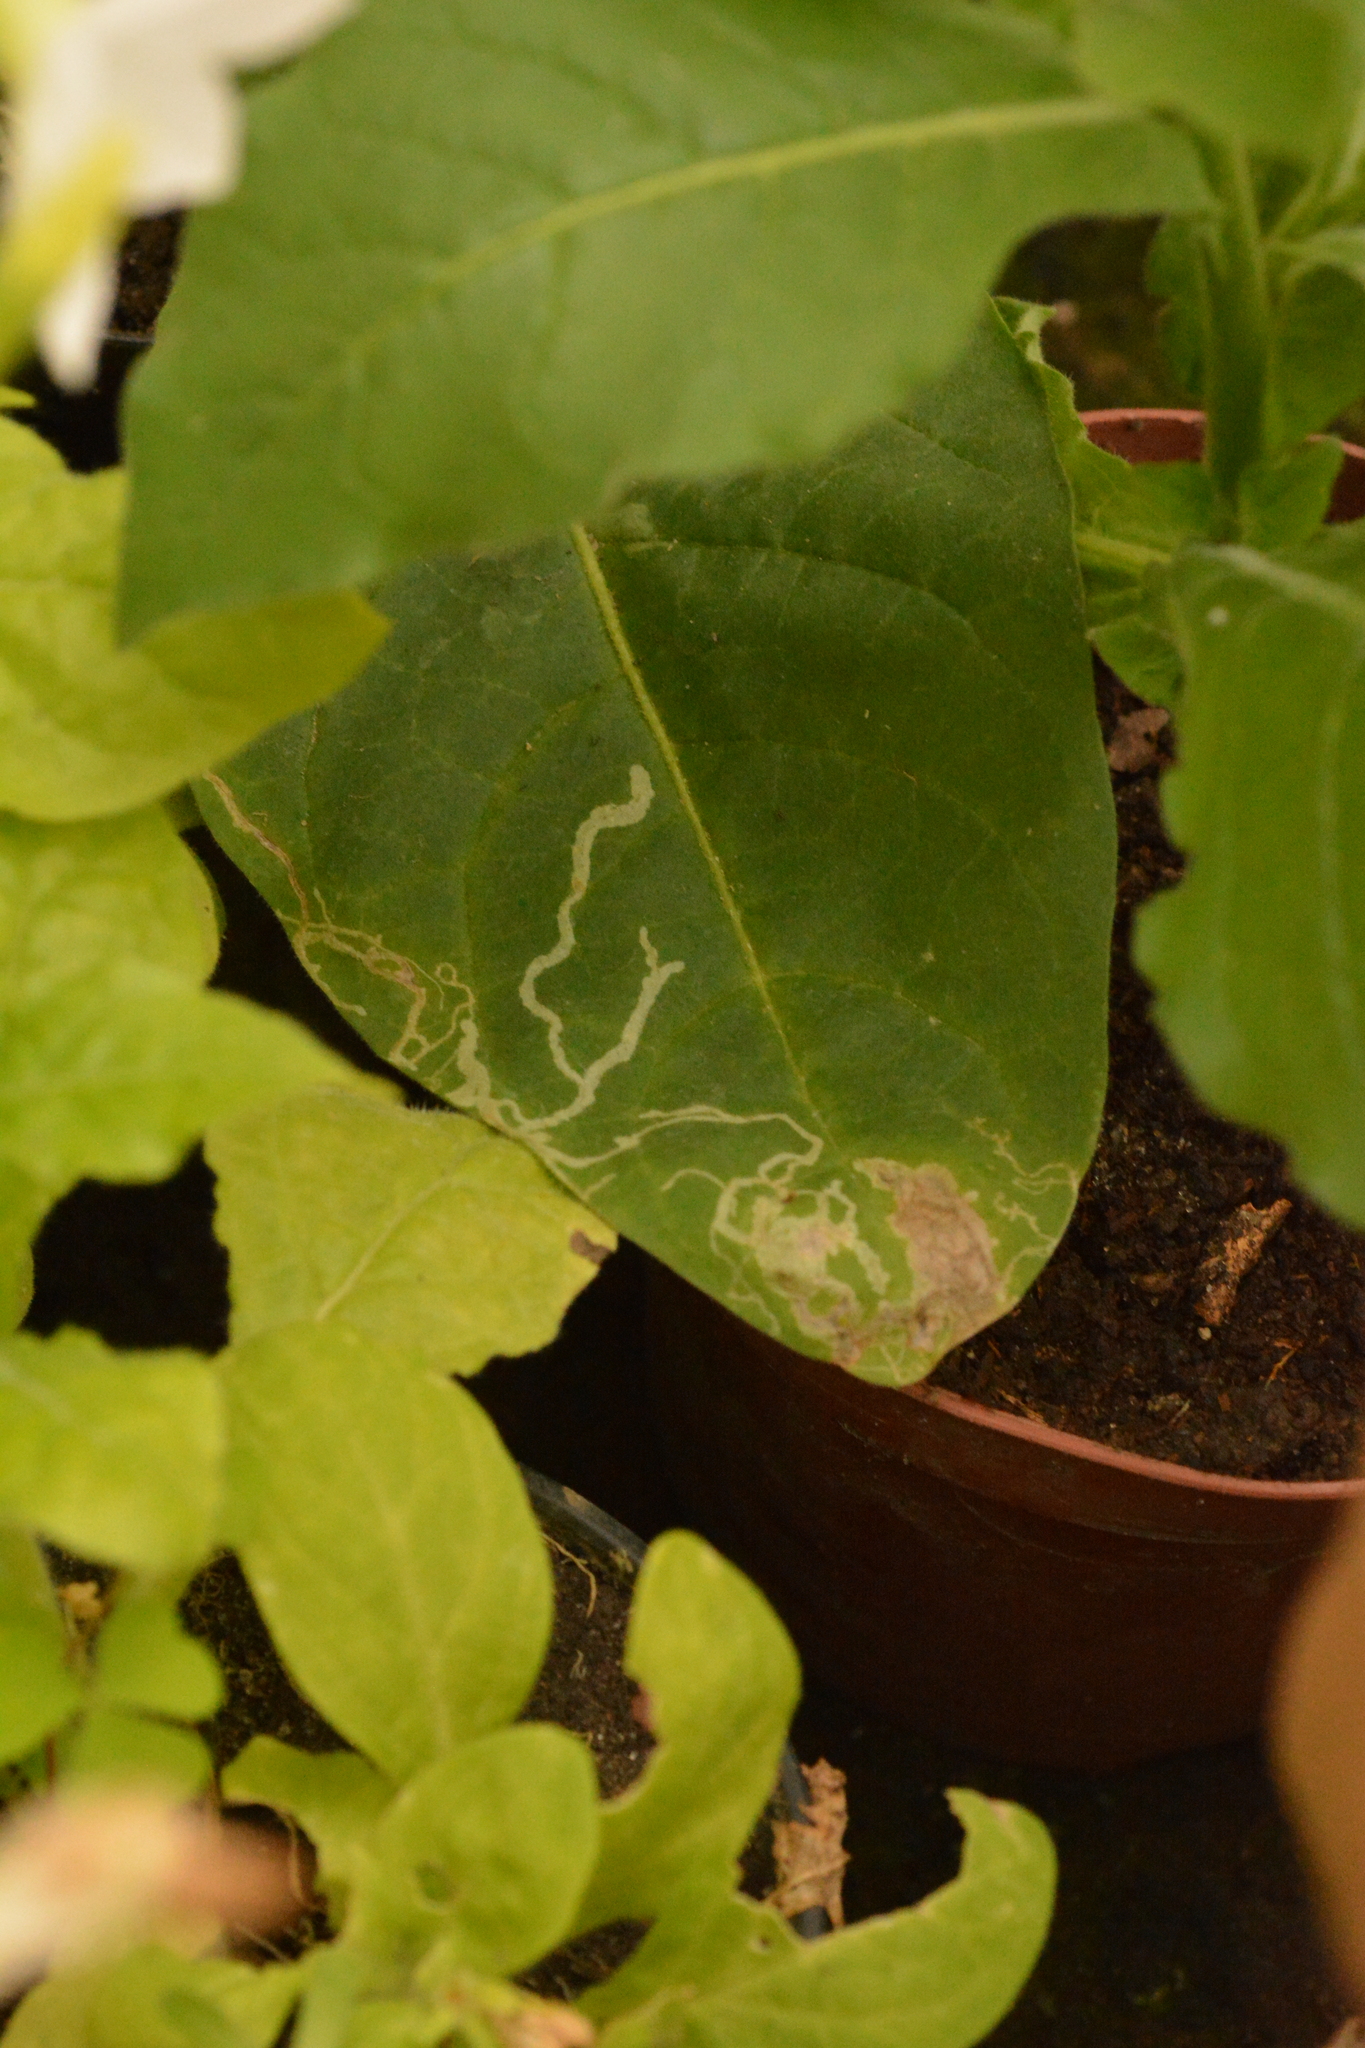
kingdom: Animalia
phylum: Arthropoda
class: Insecta
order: Diptera
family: Agromyzidae
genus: Liriomyza
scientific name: Liriomyza bryoniae
